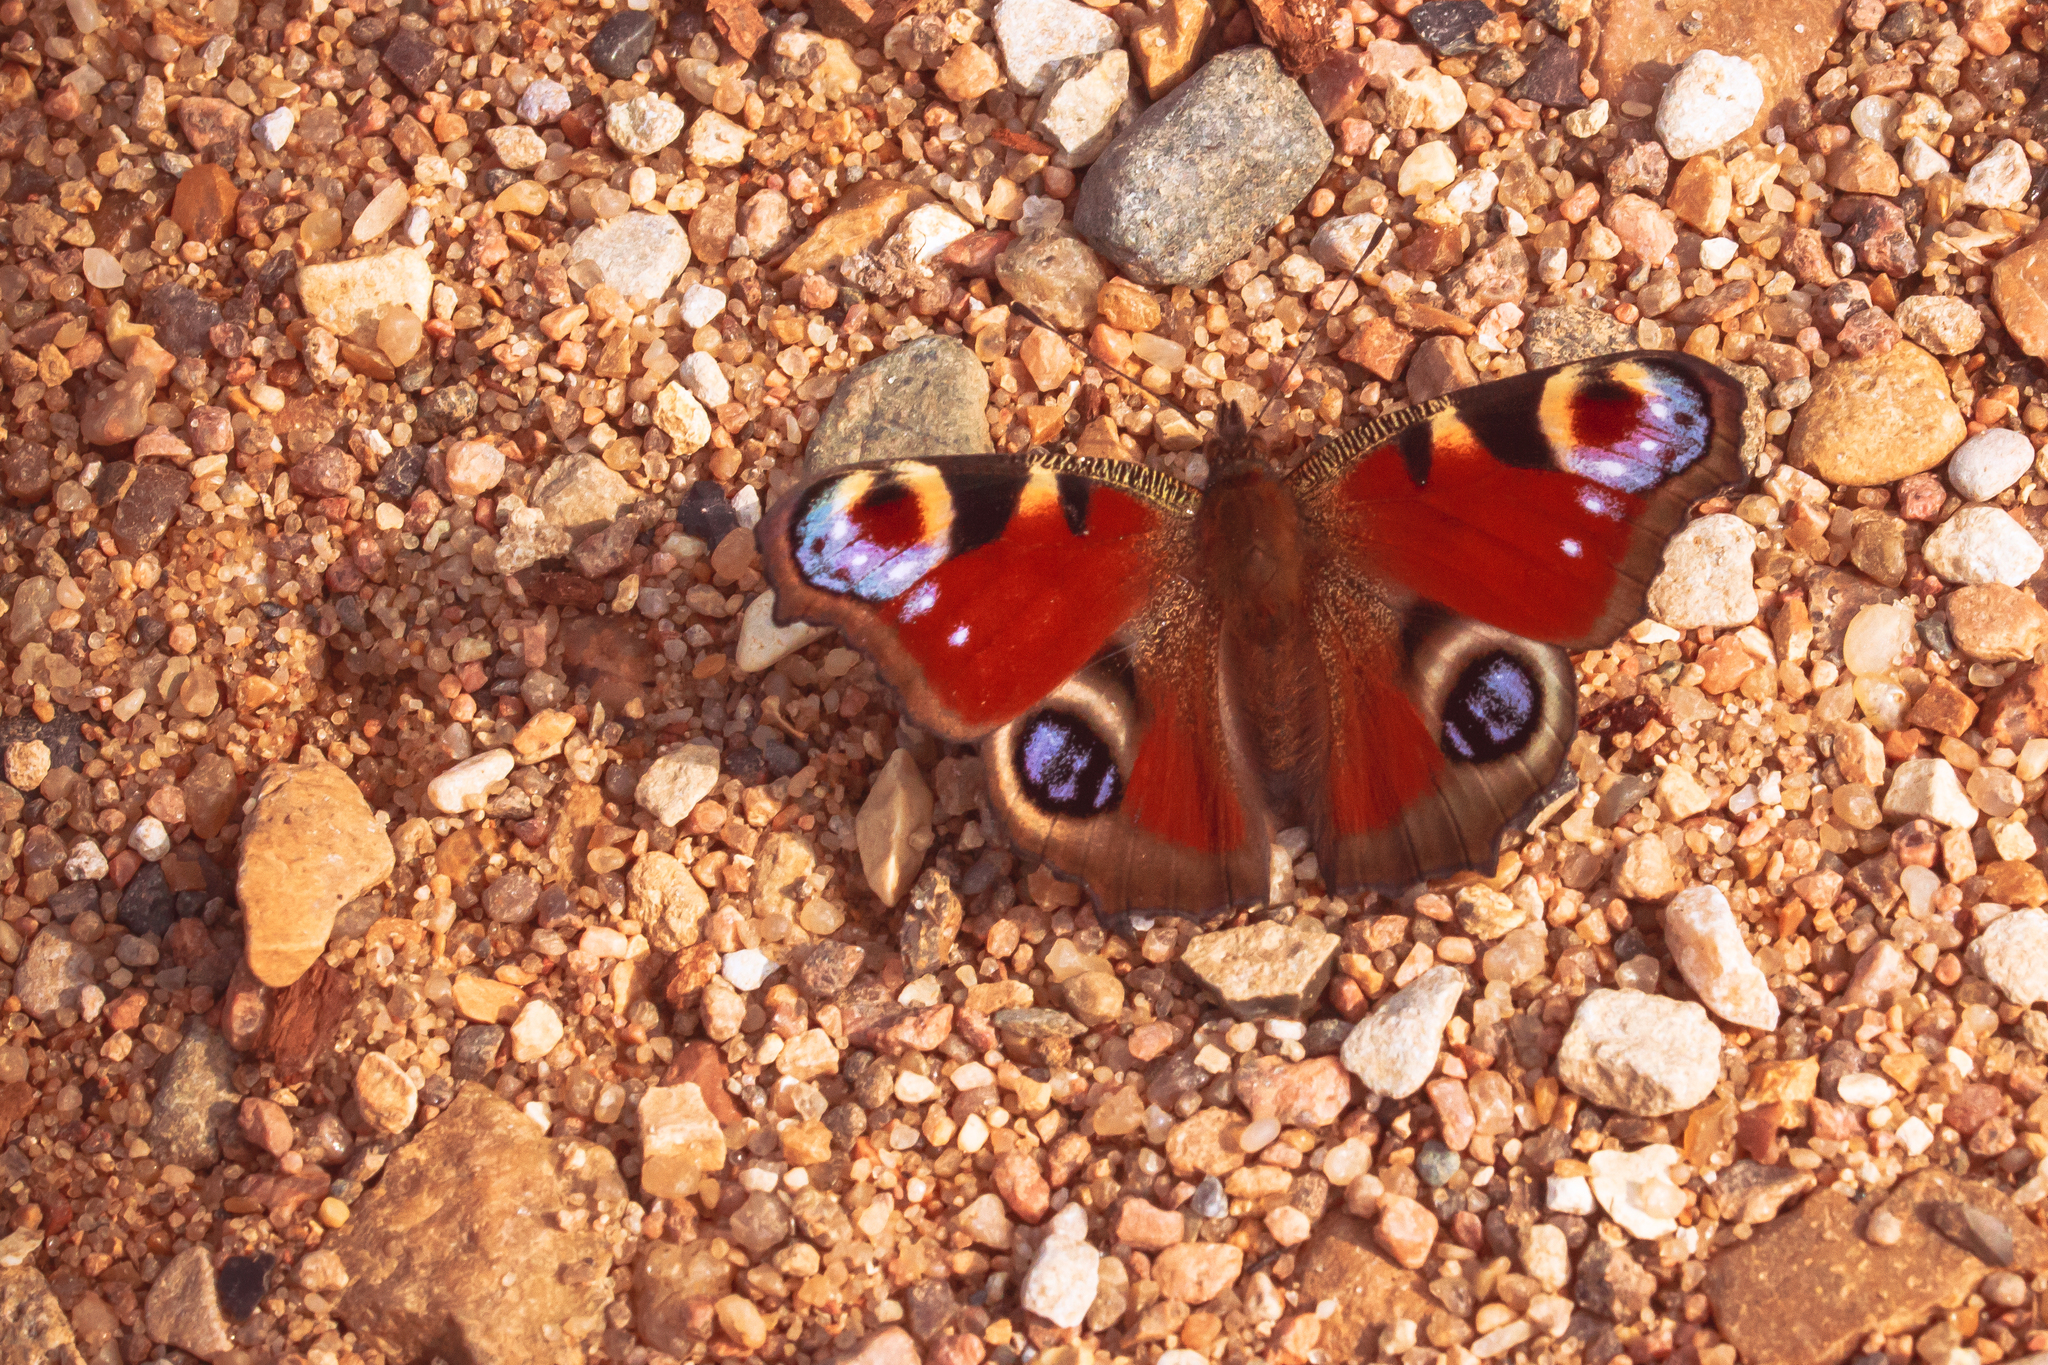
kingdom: Animalia
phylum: Arthropoda
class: Insecta
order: Lepidoptera
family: Nymphalidae
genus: Aglais
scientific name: Aglais io
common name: Peacock
